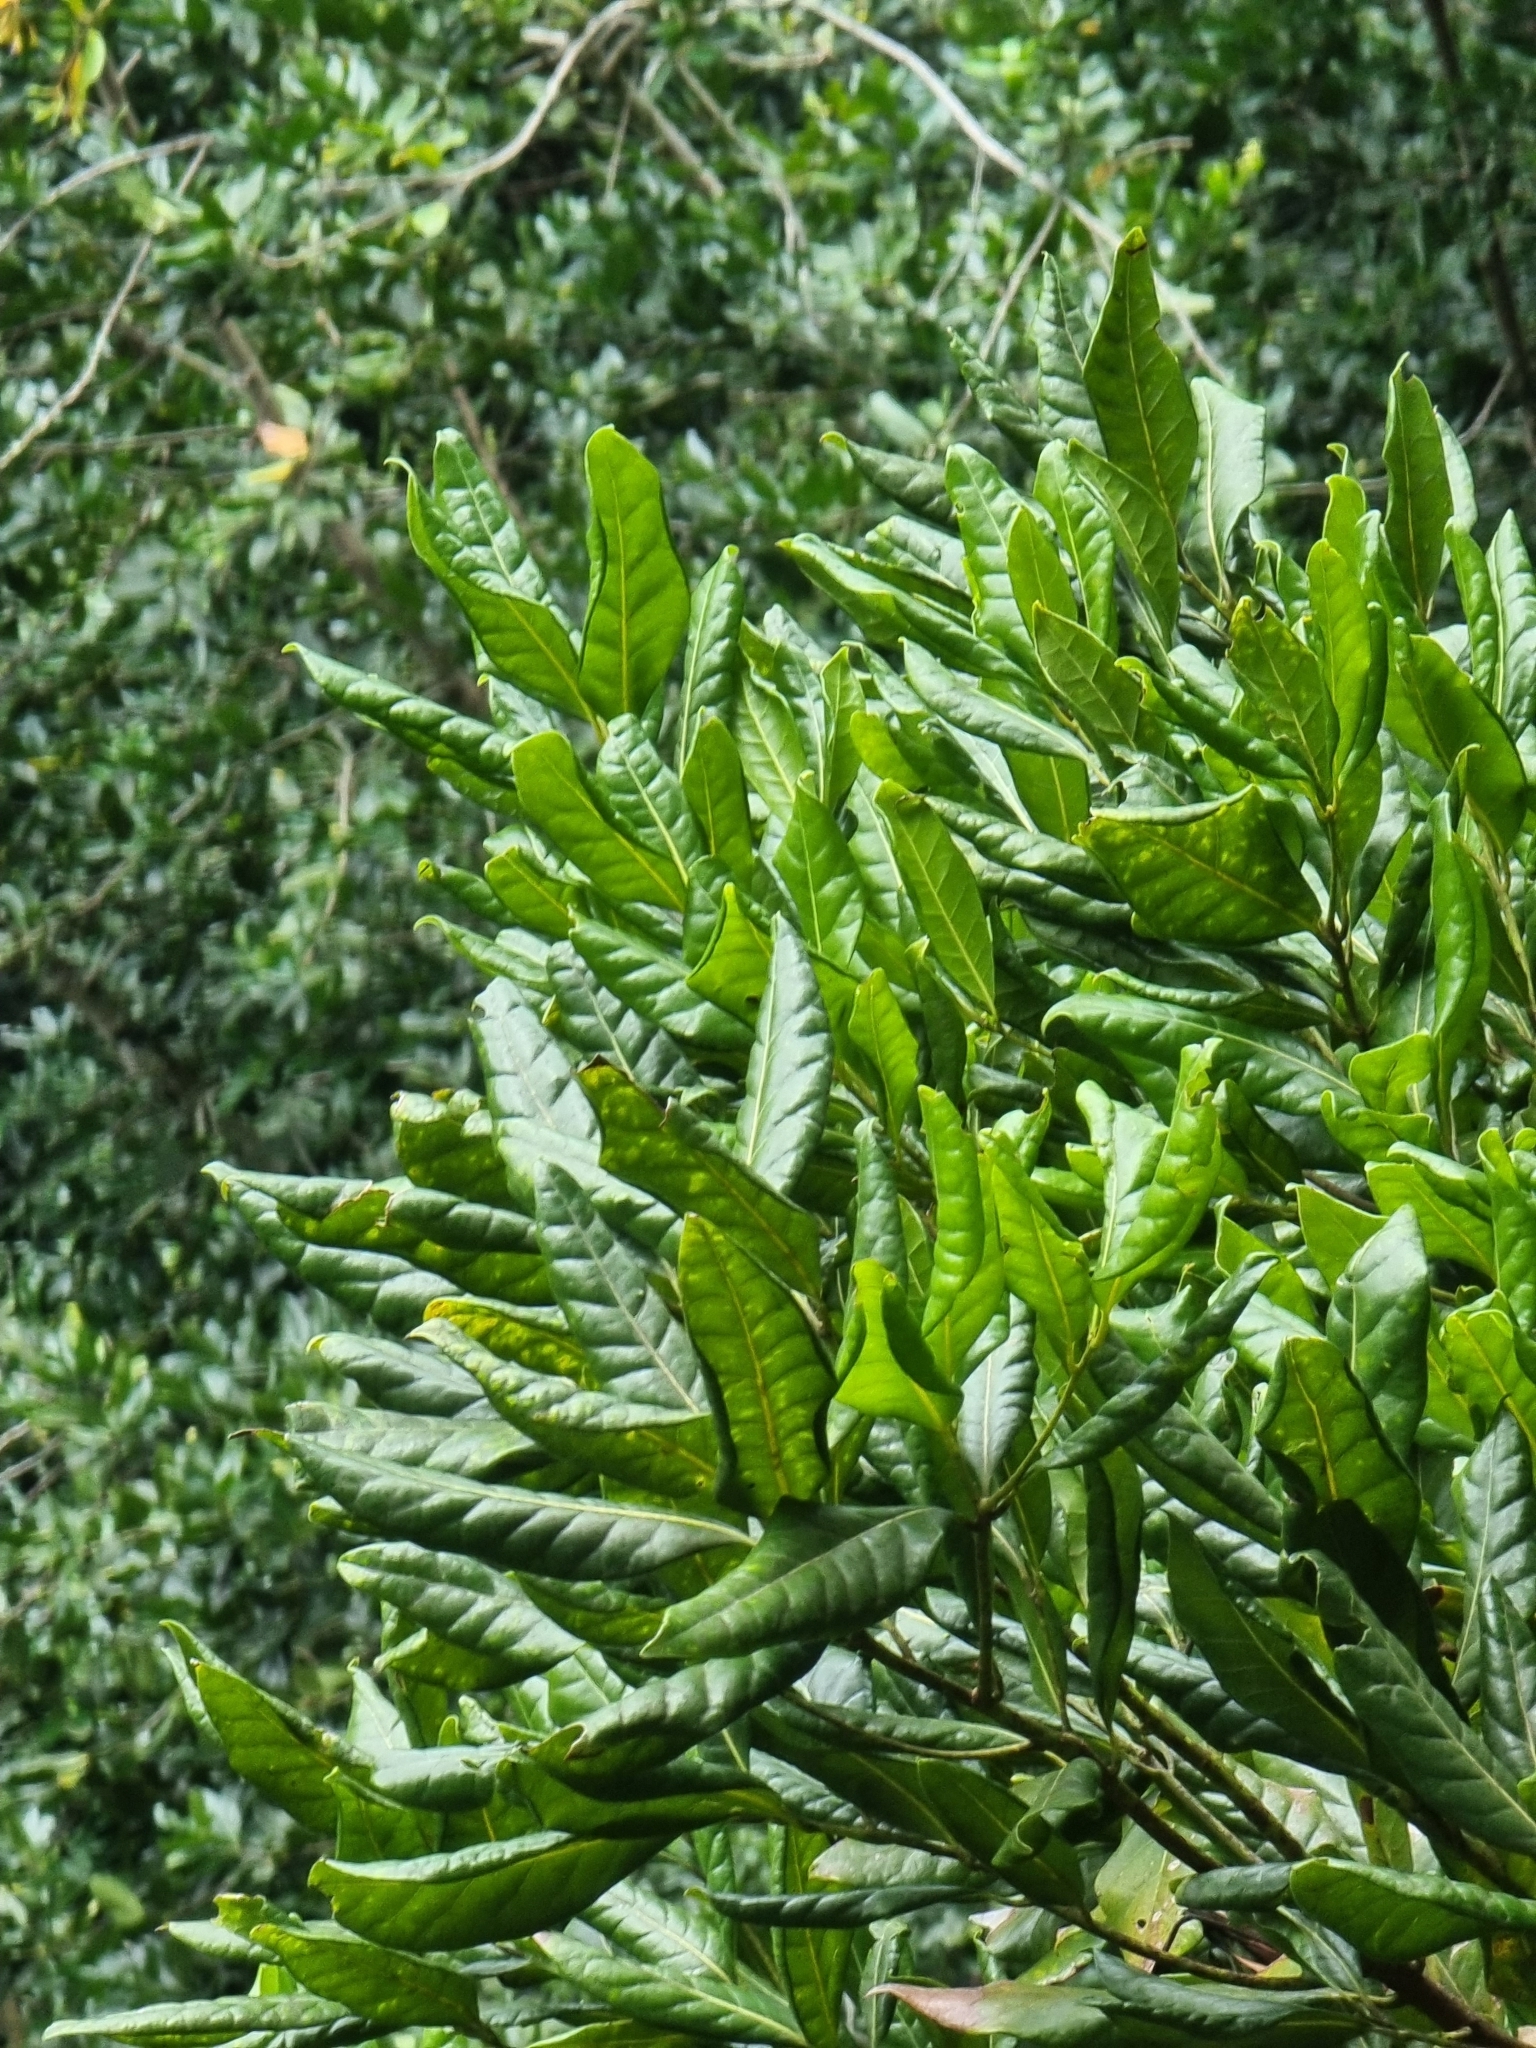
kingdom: Plantae
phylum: Tracheophyta
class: Magnoliopsida
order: Laurales
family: Lauraceae
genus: Apollonias
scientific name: Apollonias barbujana
